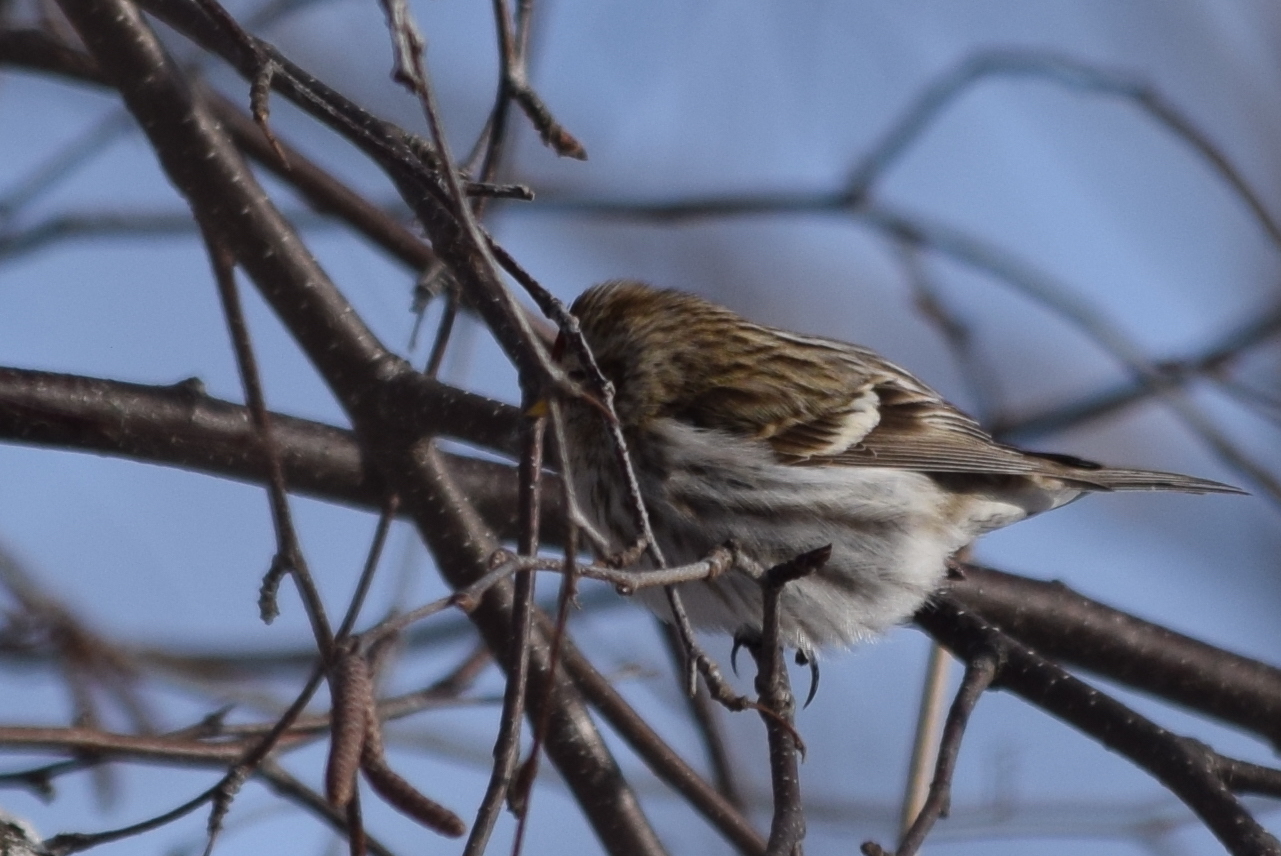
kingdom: Animalia
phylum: Chordata
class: Aves
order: Passeriformes
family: Fringillidae
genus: Acanthis
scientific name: Acanthis flammea
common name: Common redpoll
